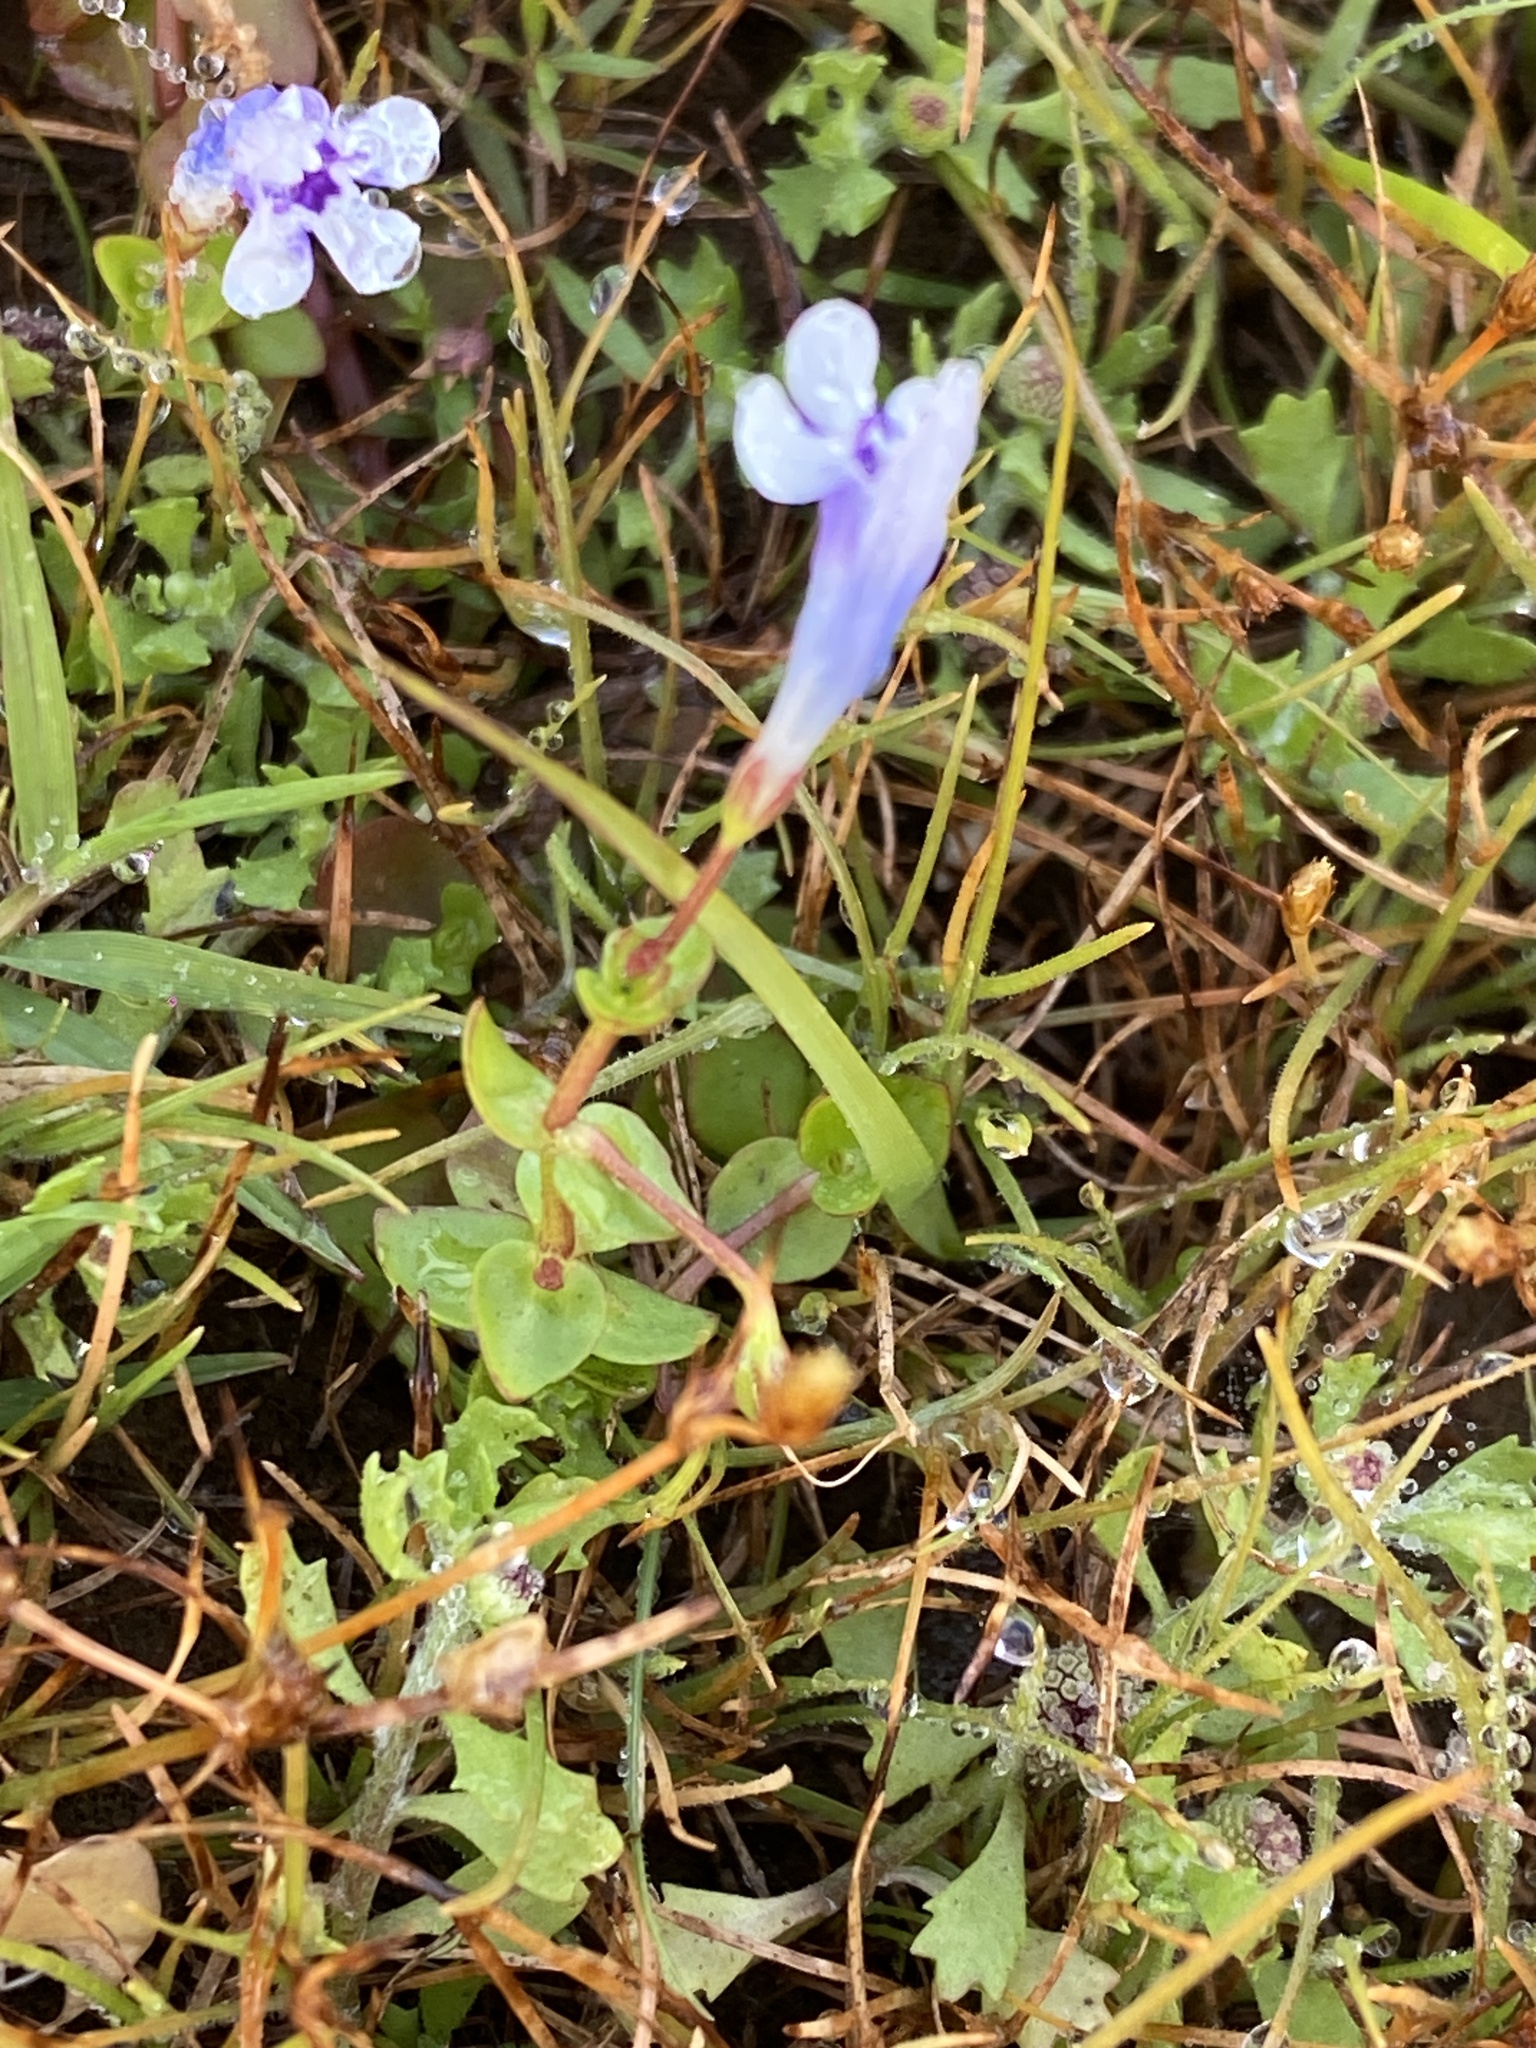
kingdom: Plantae
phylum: Tracheophyta
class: Magnoliopsida
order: Lamiales
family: Linderniaceae
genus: Lindernia
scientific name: Lindernia rotundifolia
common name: Baby’s tears
